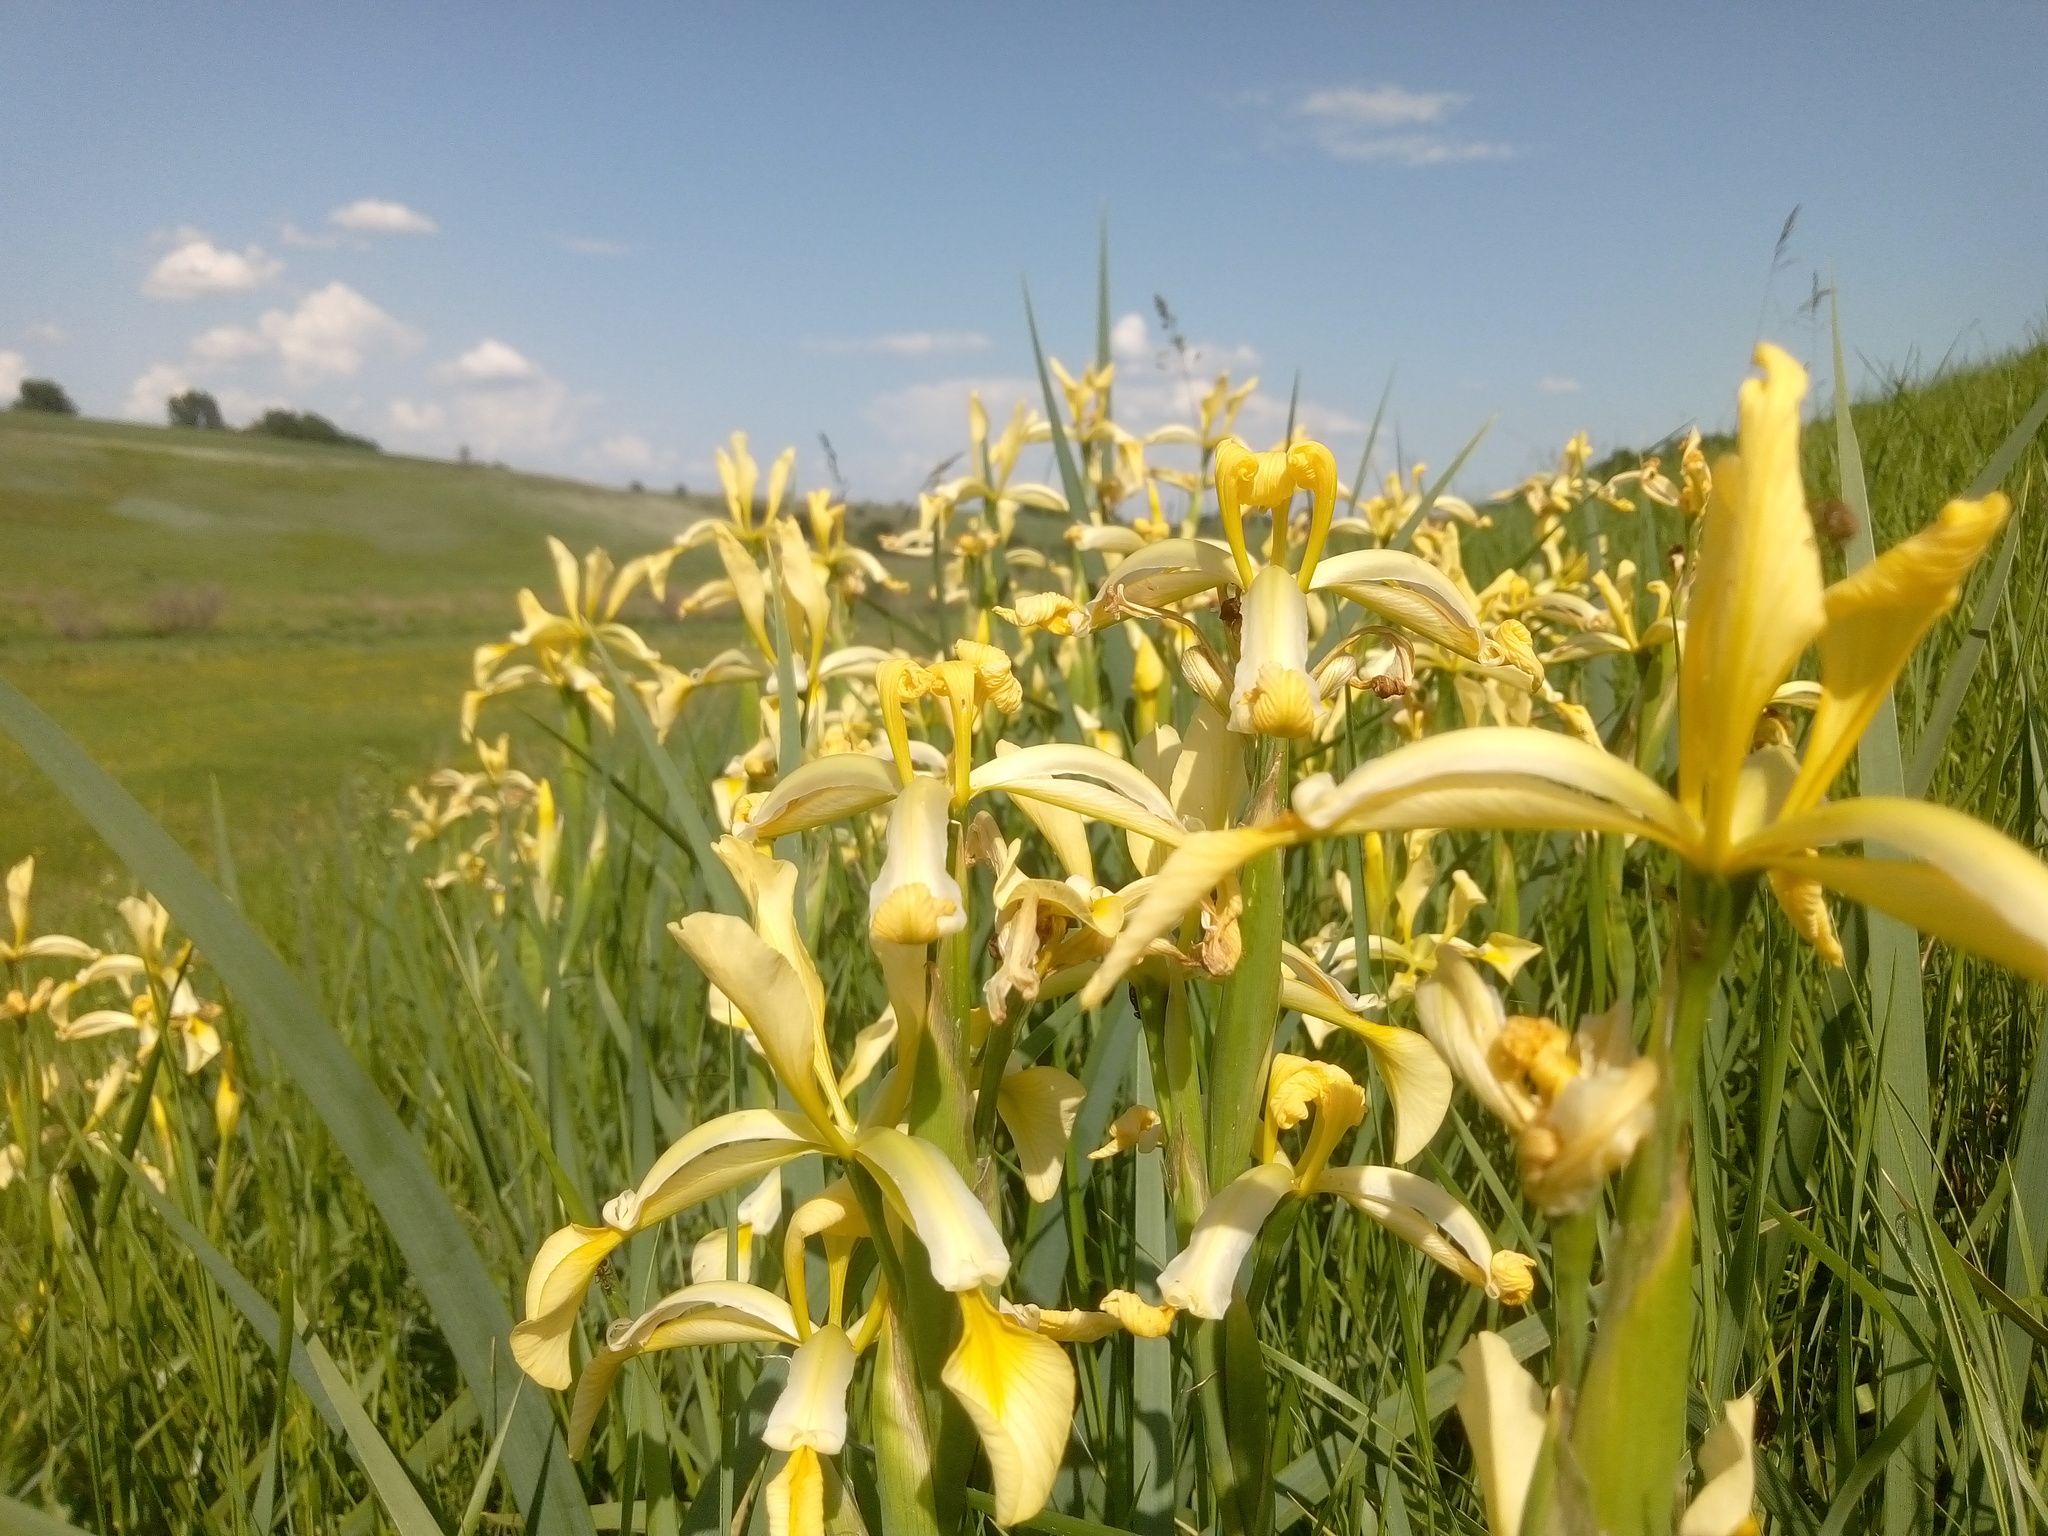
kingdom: Plantae
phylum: Tracheophyta
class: Liliopsida
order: Asparagales
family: Iridaceae
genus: Iris
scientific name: Iris halophila
